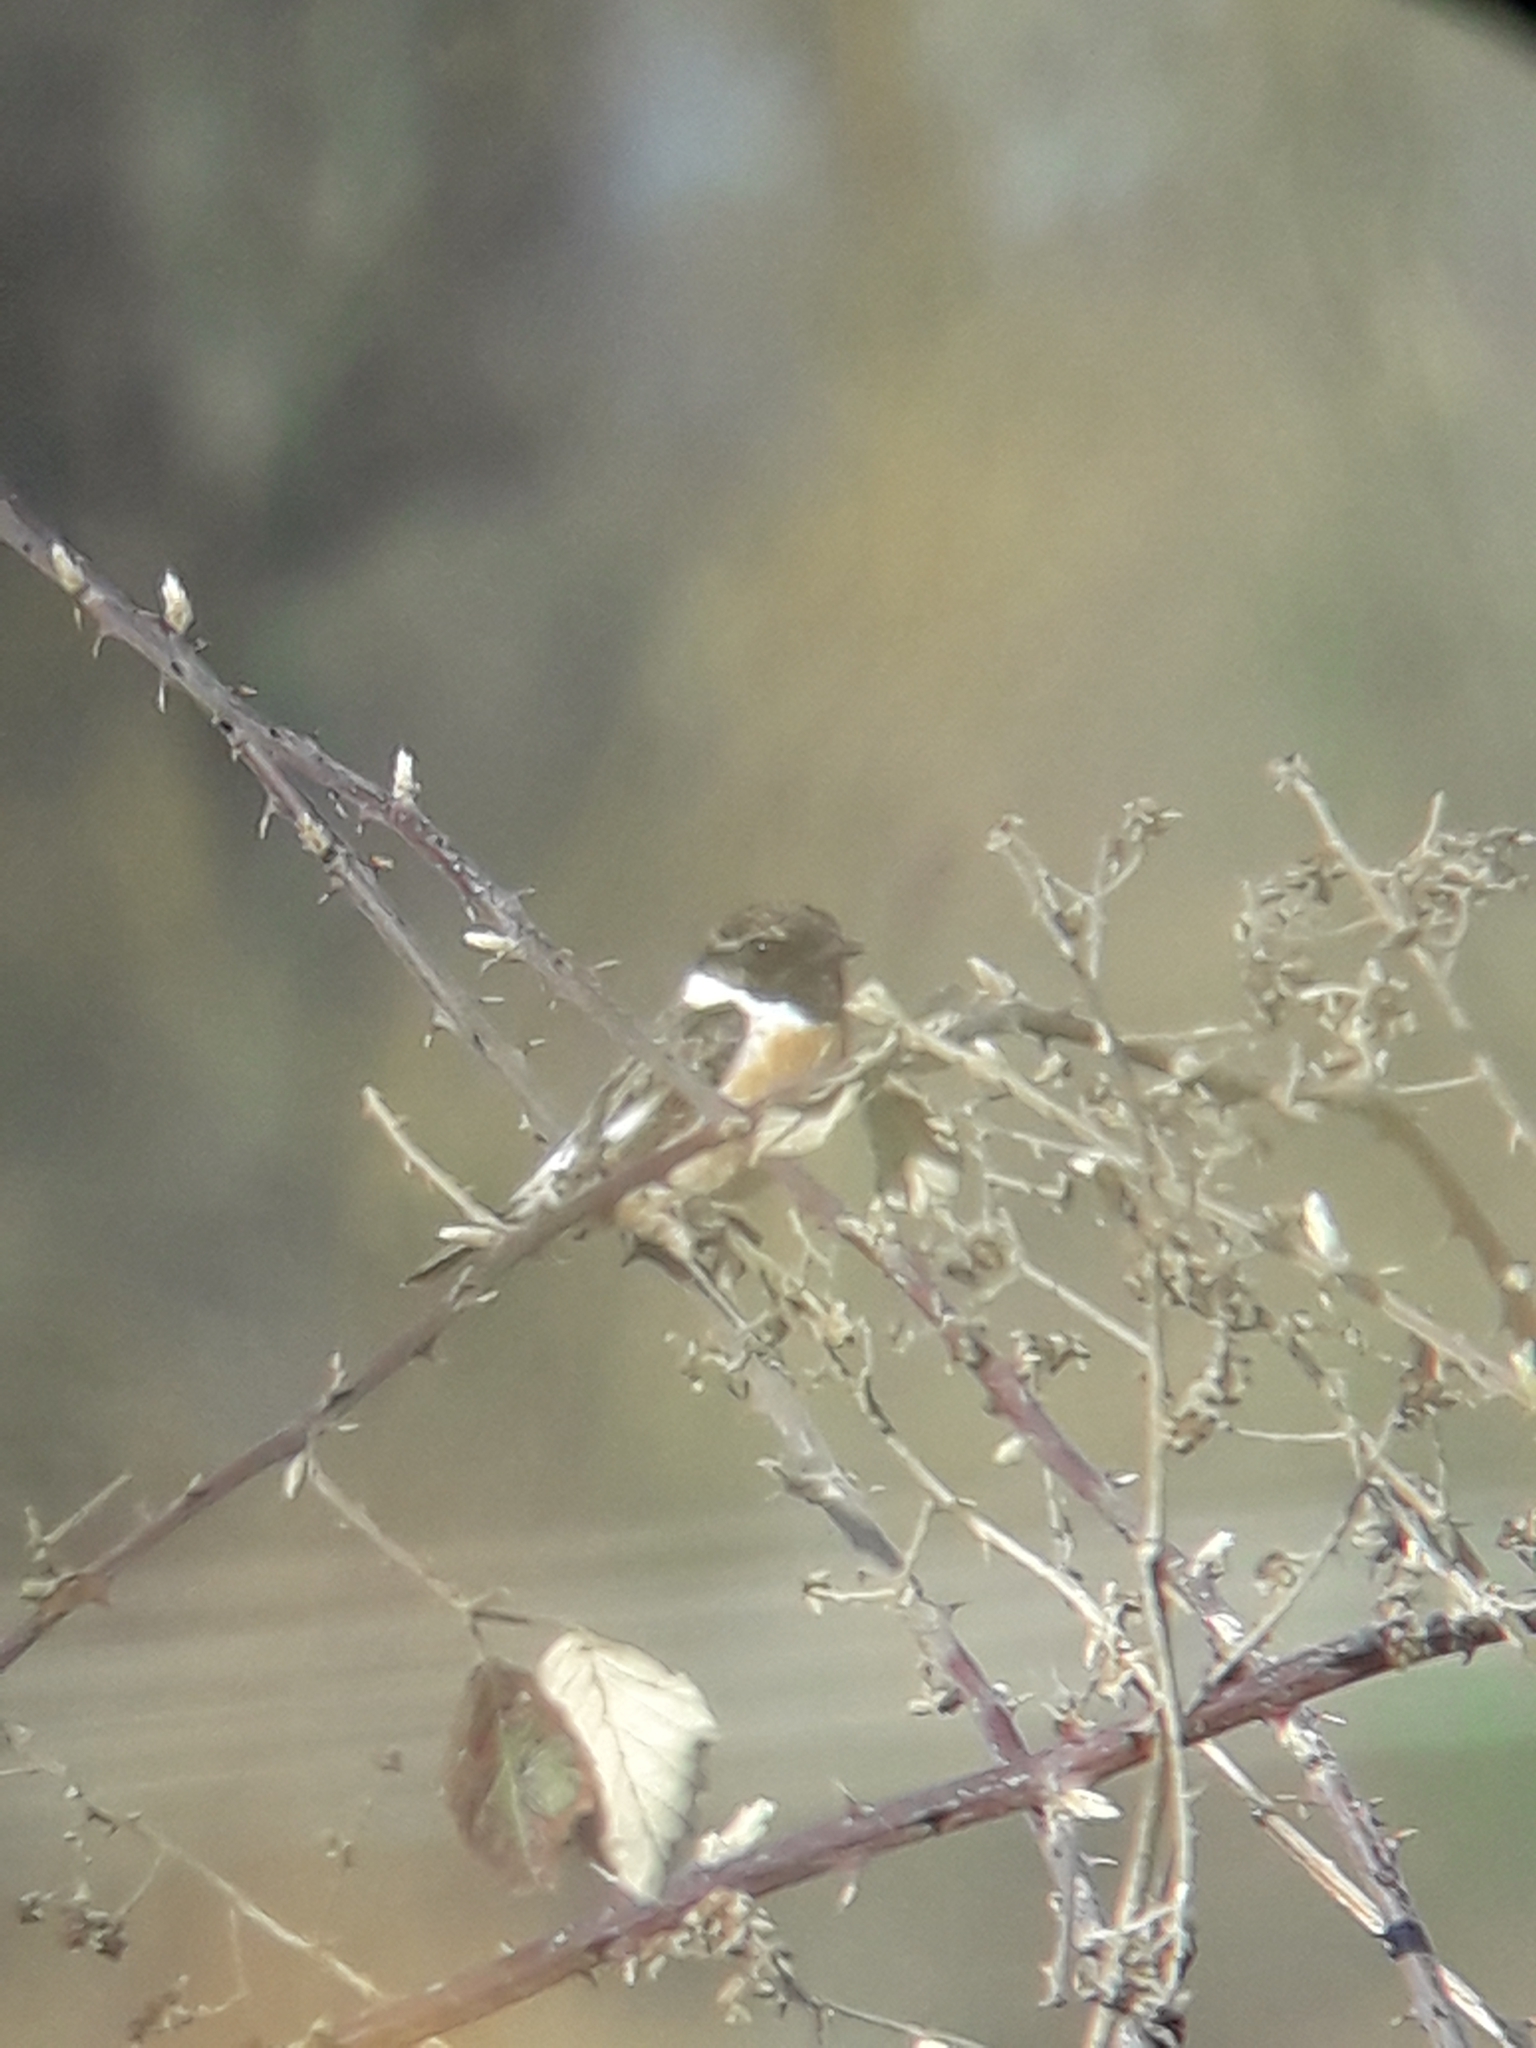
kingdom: Animalia
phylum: Chordata
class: Aves
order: Passeriformes
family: Muscicapidae
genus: Saxicola
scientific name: Saxicola rubicola
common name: European stonechat
